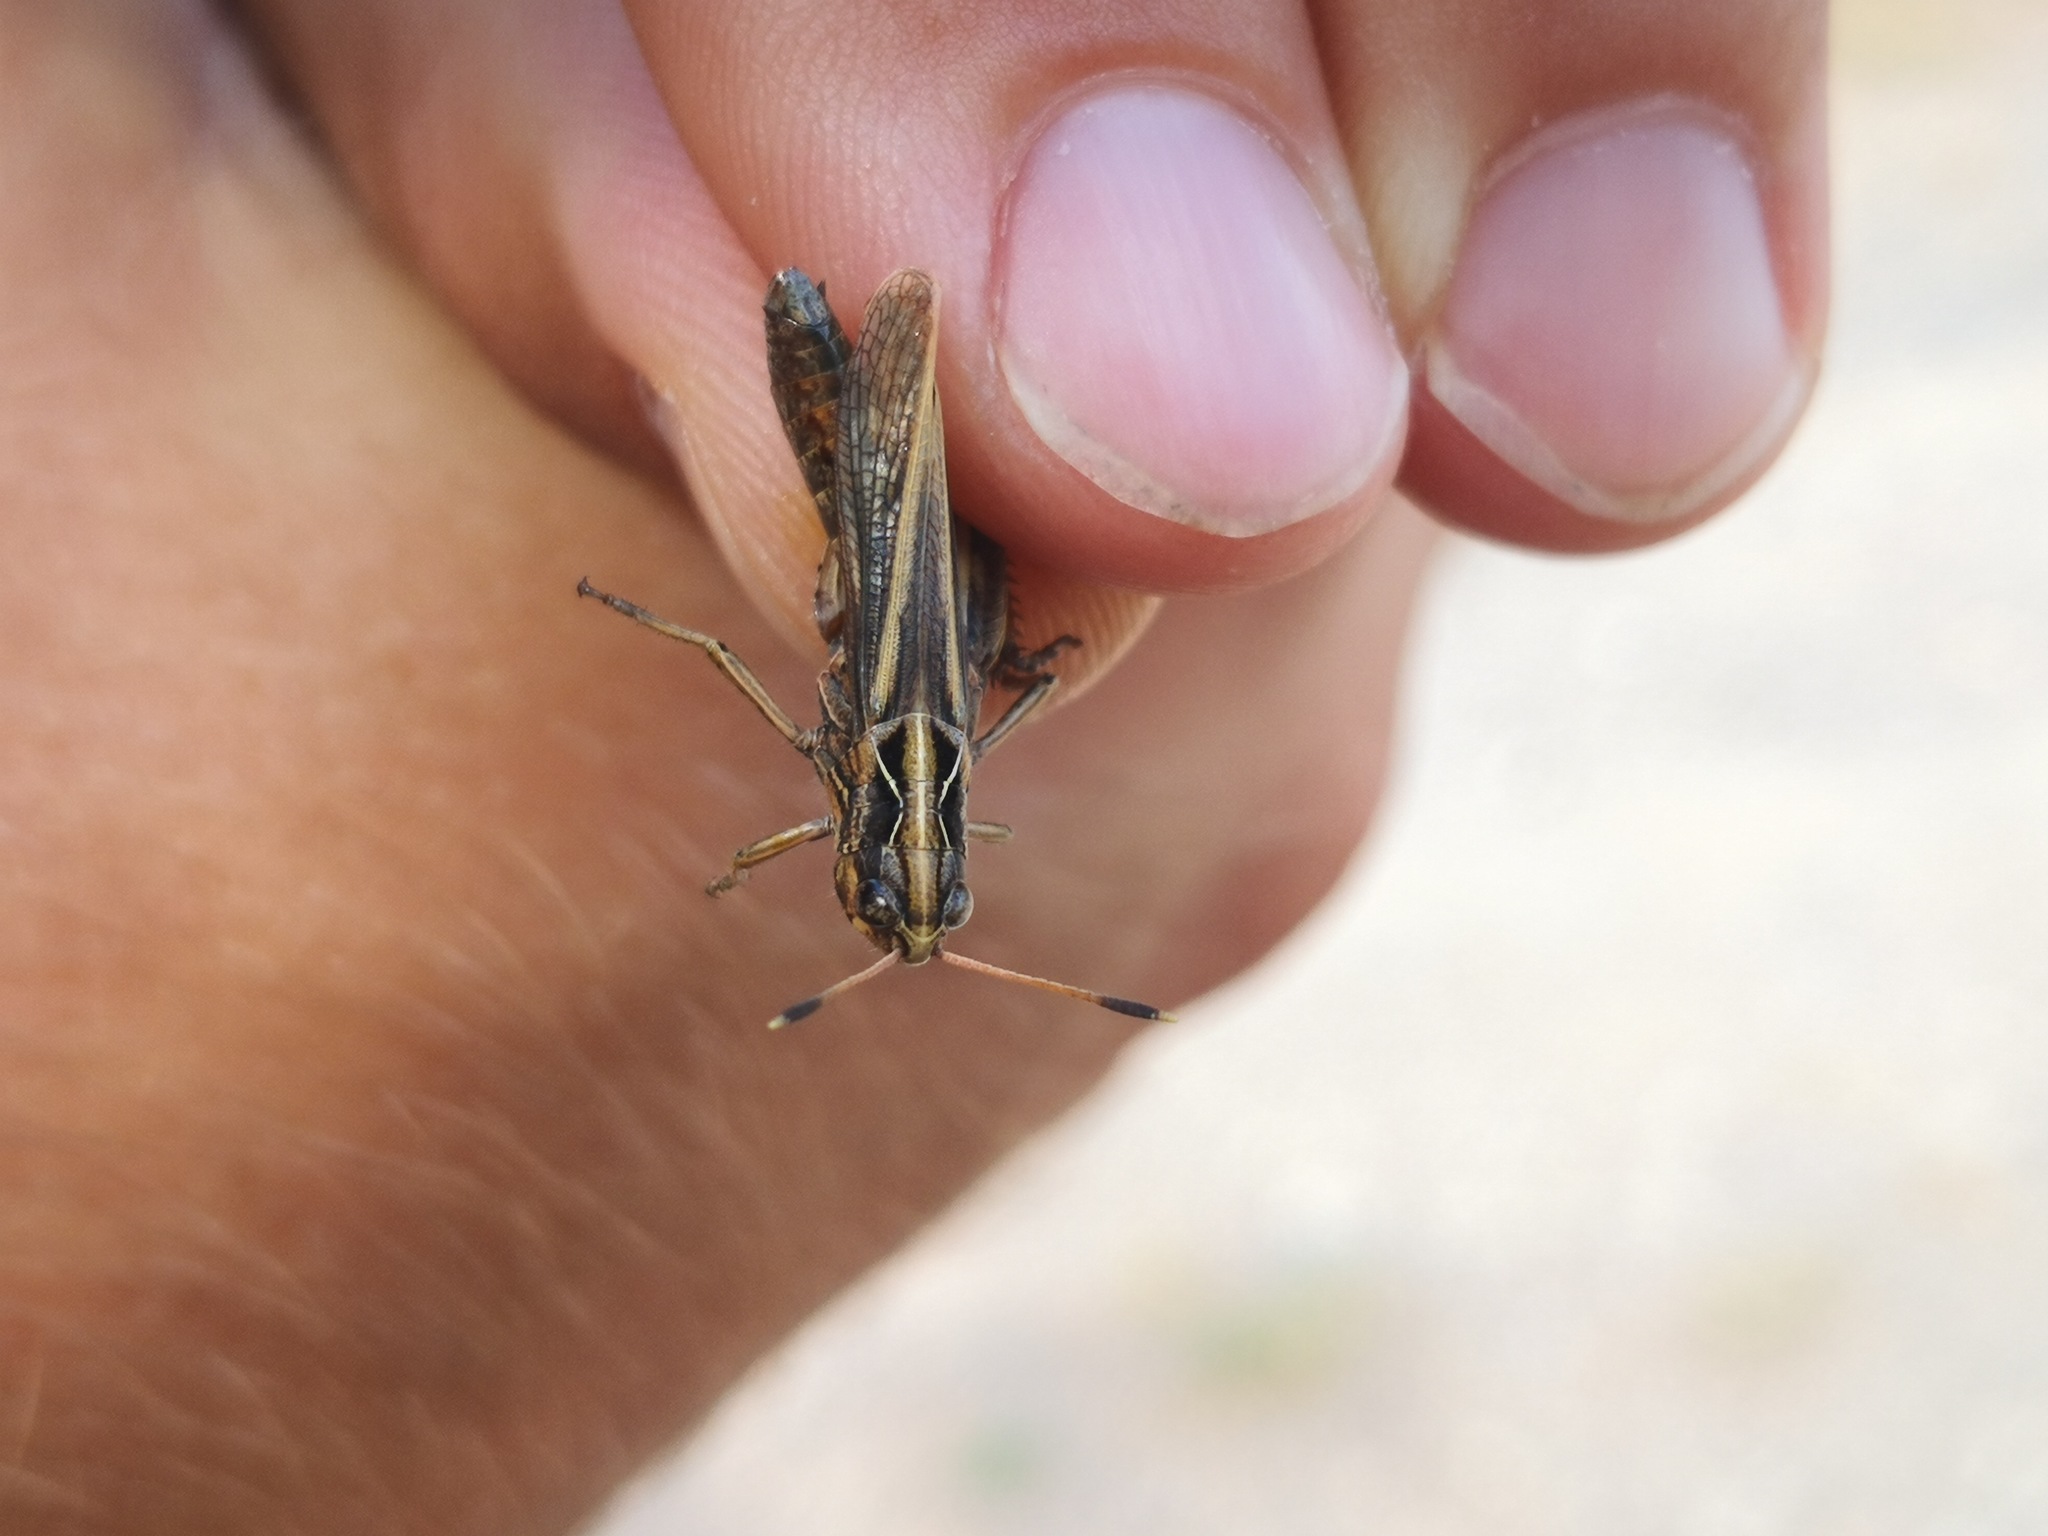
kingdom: Animalia
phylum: Arthropoda
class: Insecta
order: Orthoptera
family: Acrididae
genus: Gomphocerippus
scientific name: Gomphocerippus rufus
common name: Rufous grasshopper
